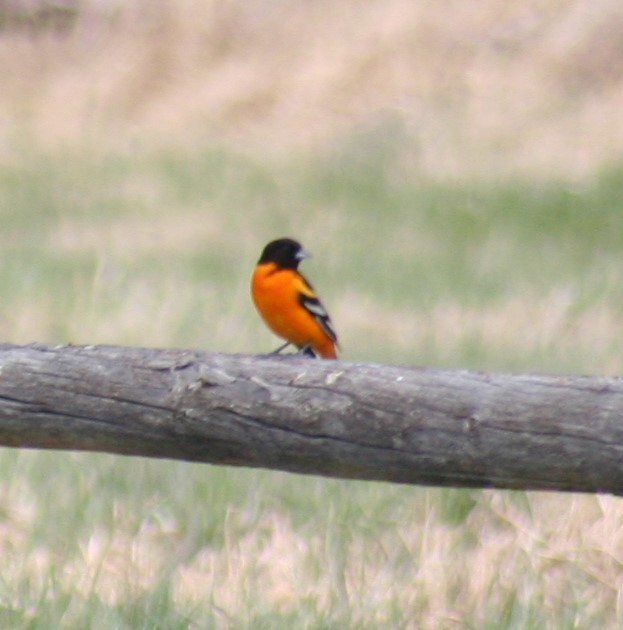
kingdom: Animalia
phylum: Chordata
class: Aves
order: Passeriformes
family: Icteridae
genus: Icterus
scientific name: Icterus galbula
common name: Baltimore oriole
